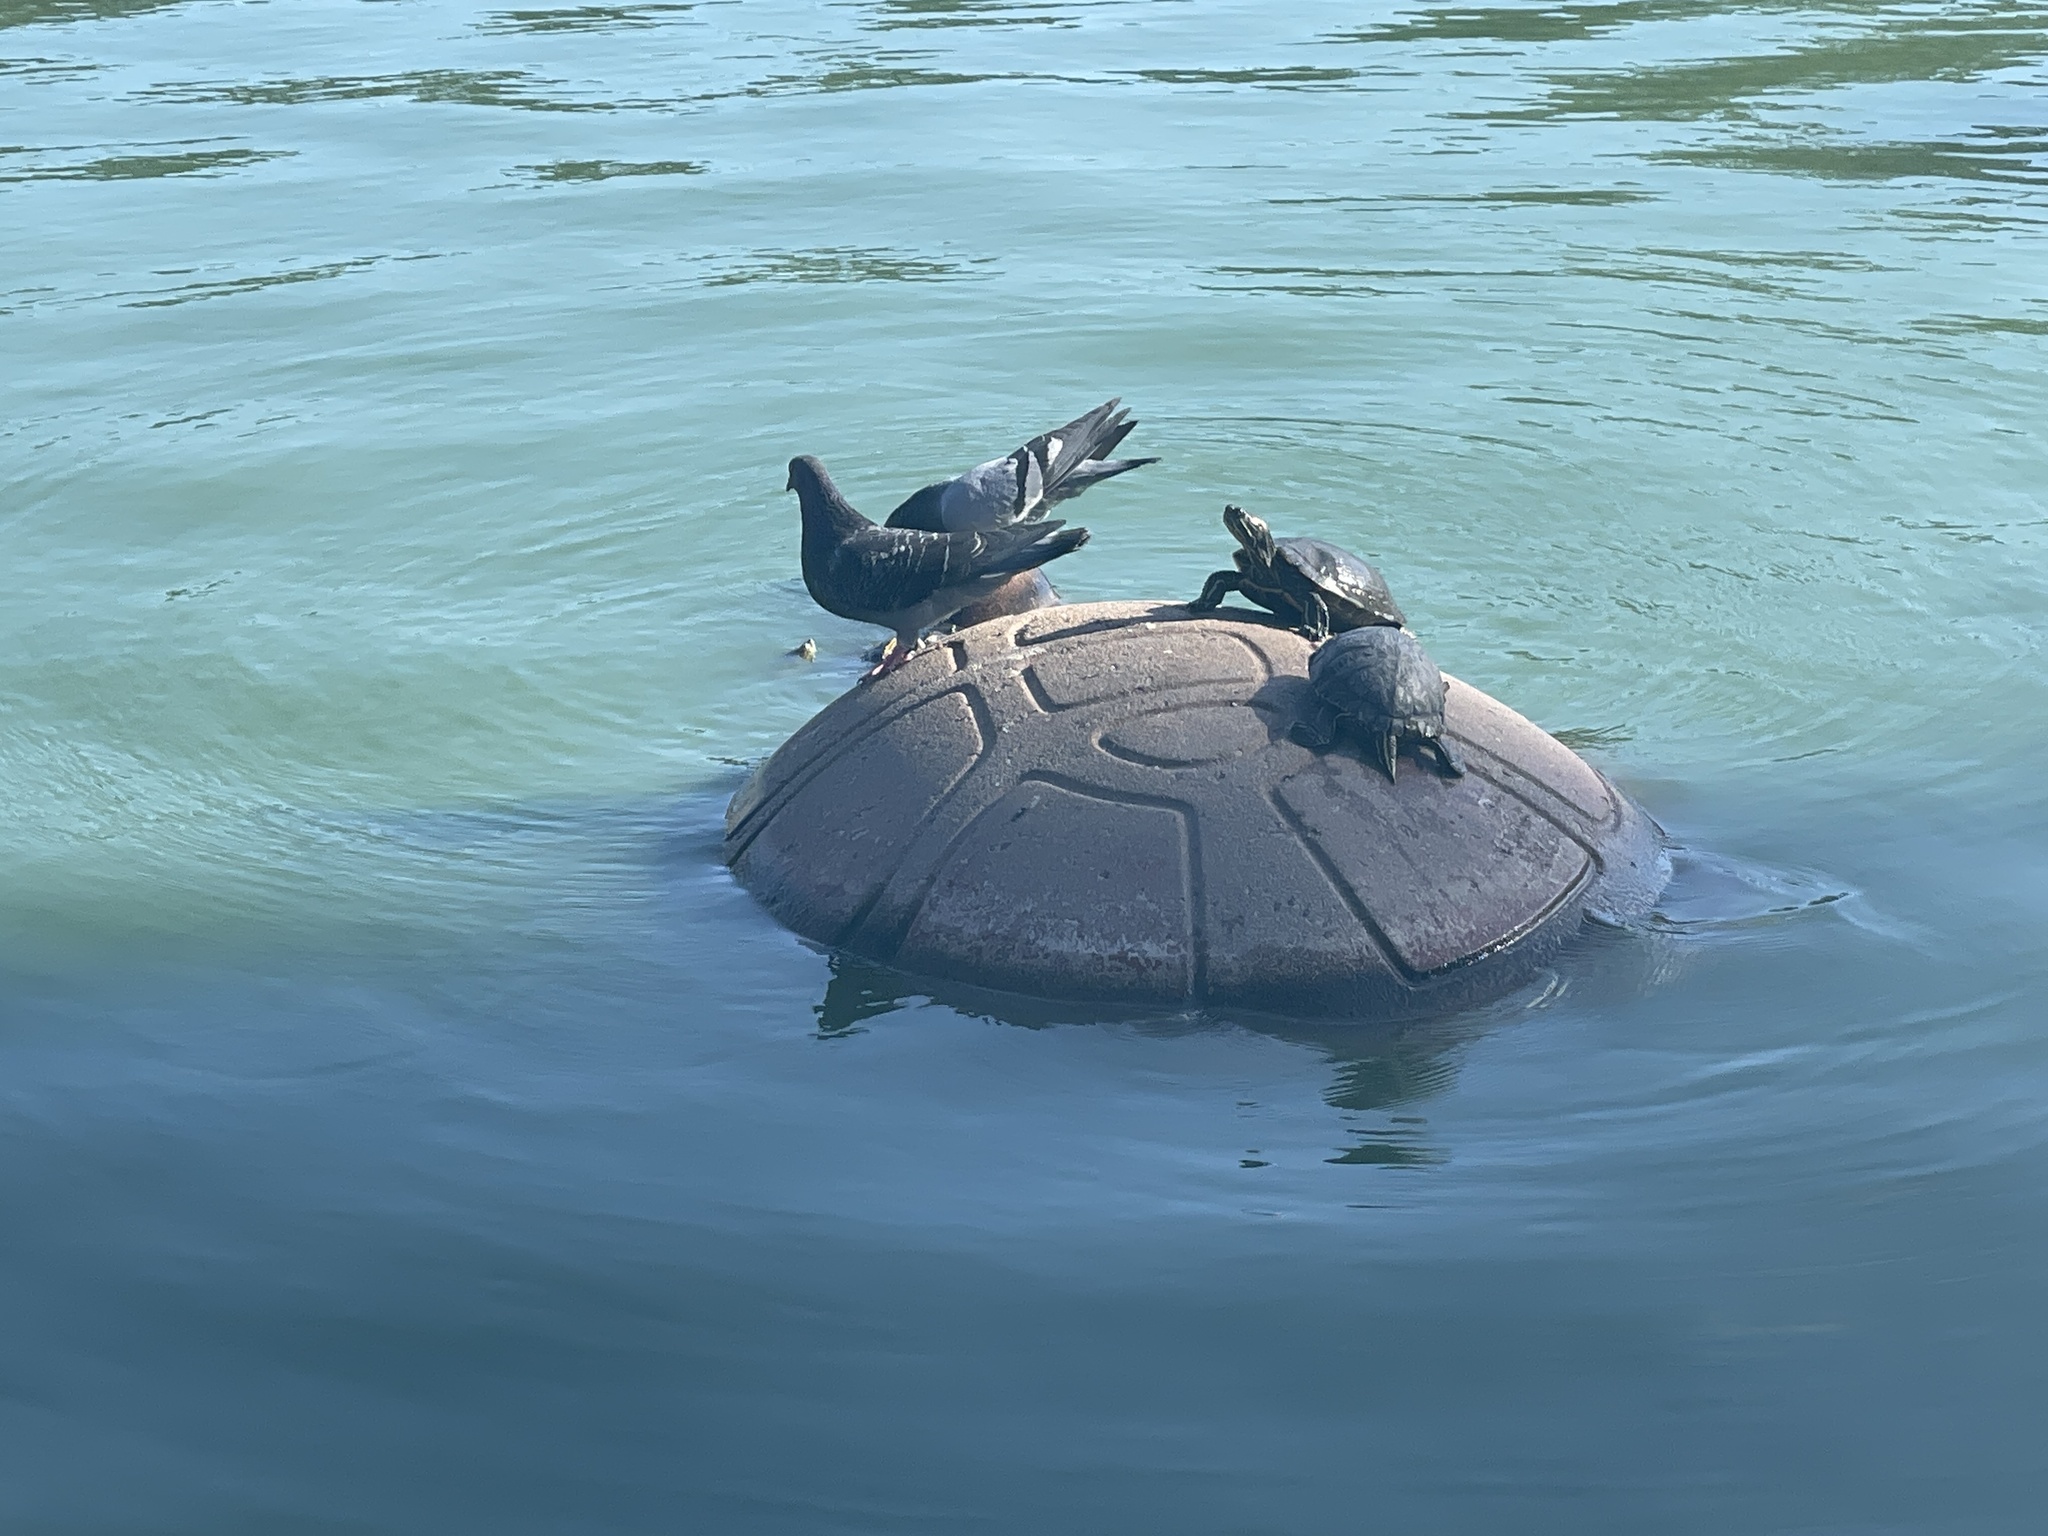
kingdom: Animalia
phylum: Chordata
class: Testudines
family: Emydidae
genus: Trachemys
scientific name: Trachemys scripta
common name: Slider
